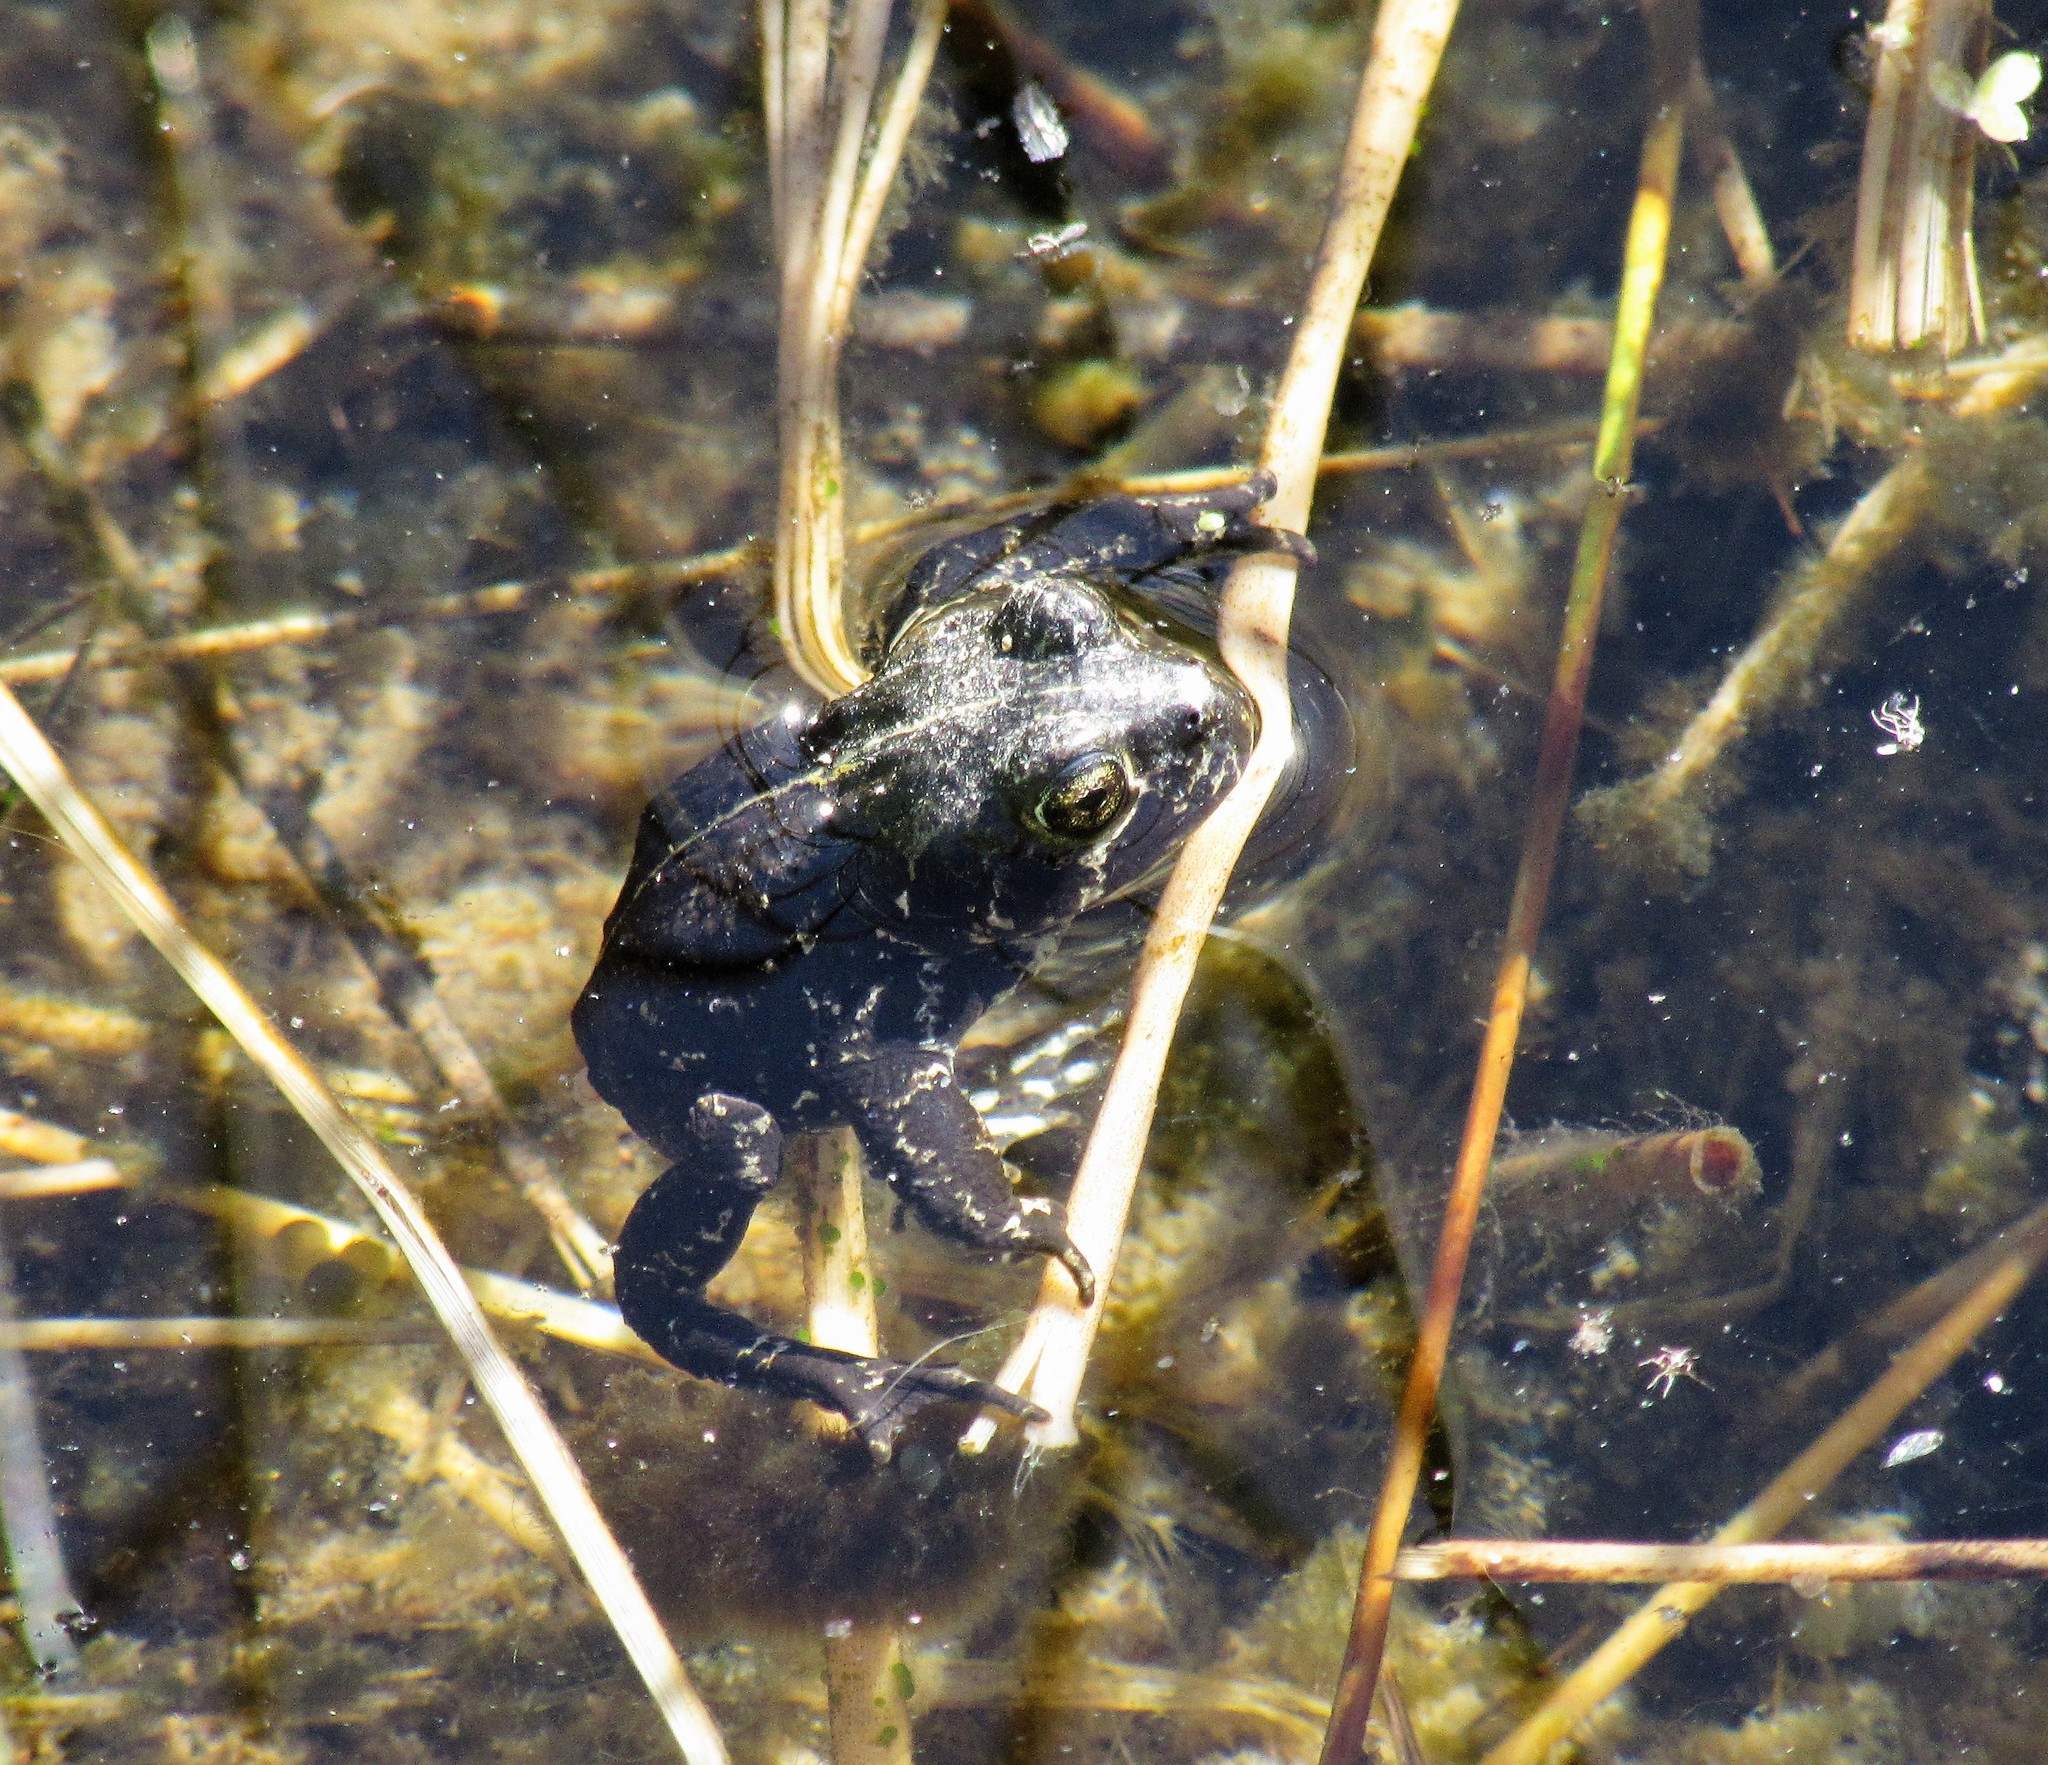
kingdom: Animalia
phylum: Chordata
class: Amphibia
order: Anura
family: Bufonidae
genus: Anaxyrus
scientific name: Anaxyrus exsul
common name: Black toad
